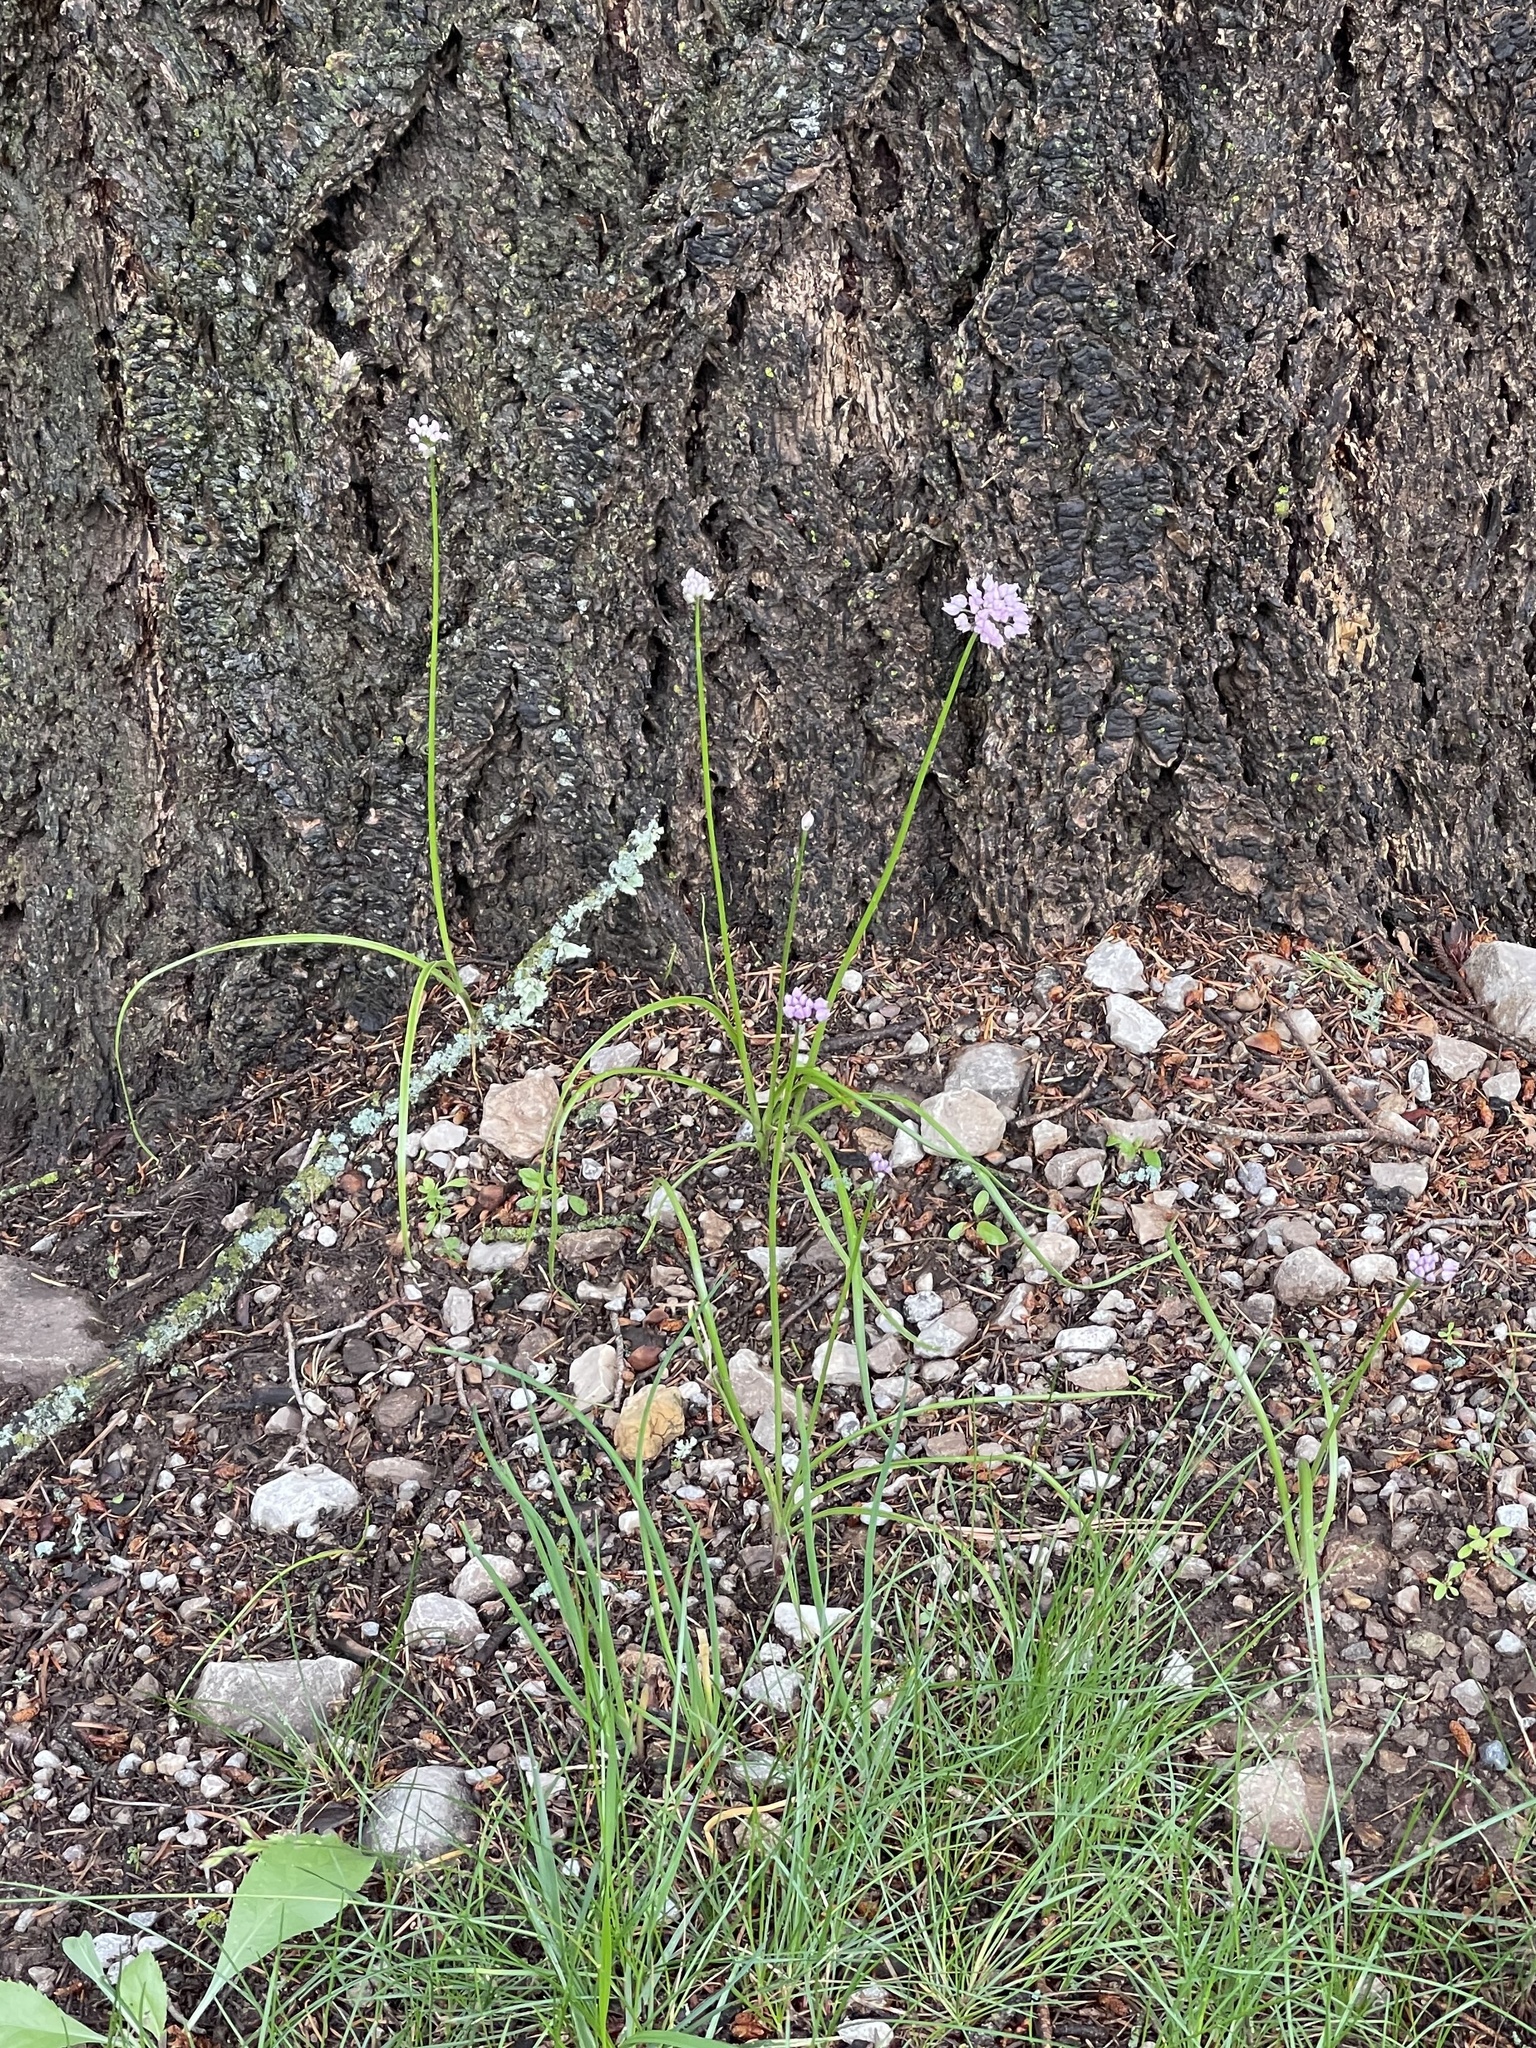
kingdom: Plantae
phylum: Tracheophyta
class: Liliopsida
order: Asparagales
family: Amaryllidaceae
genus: Allium
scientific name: Allium geyeri
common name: Geyer's onion
